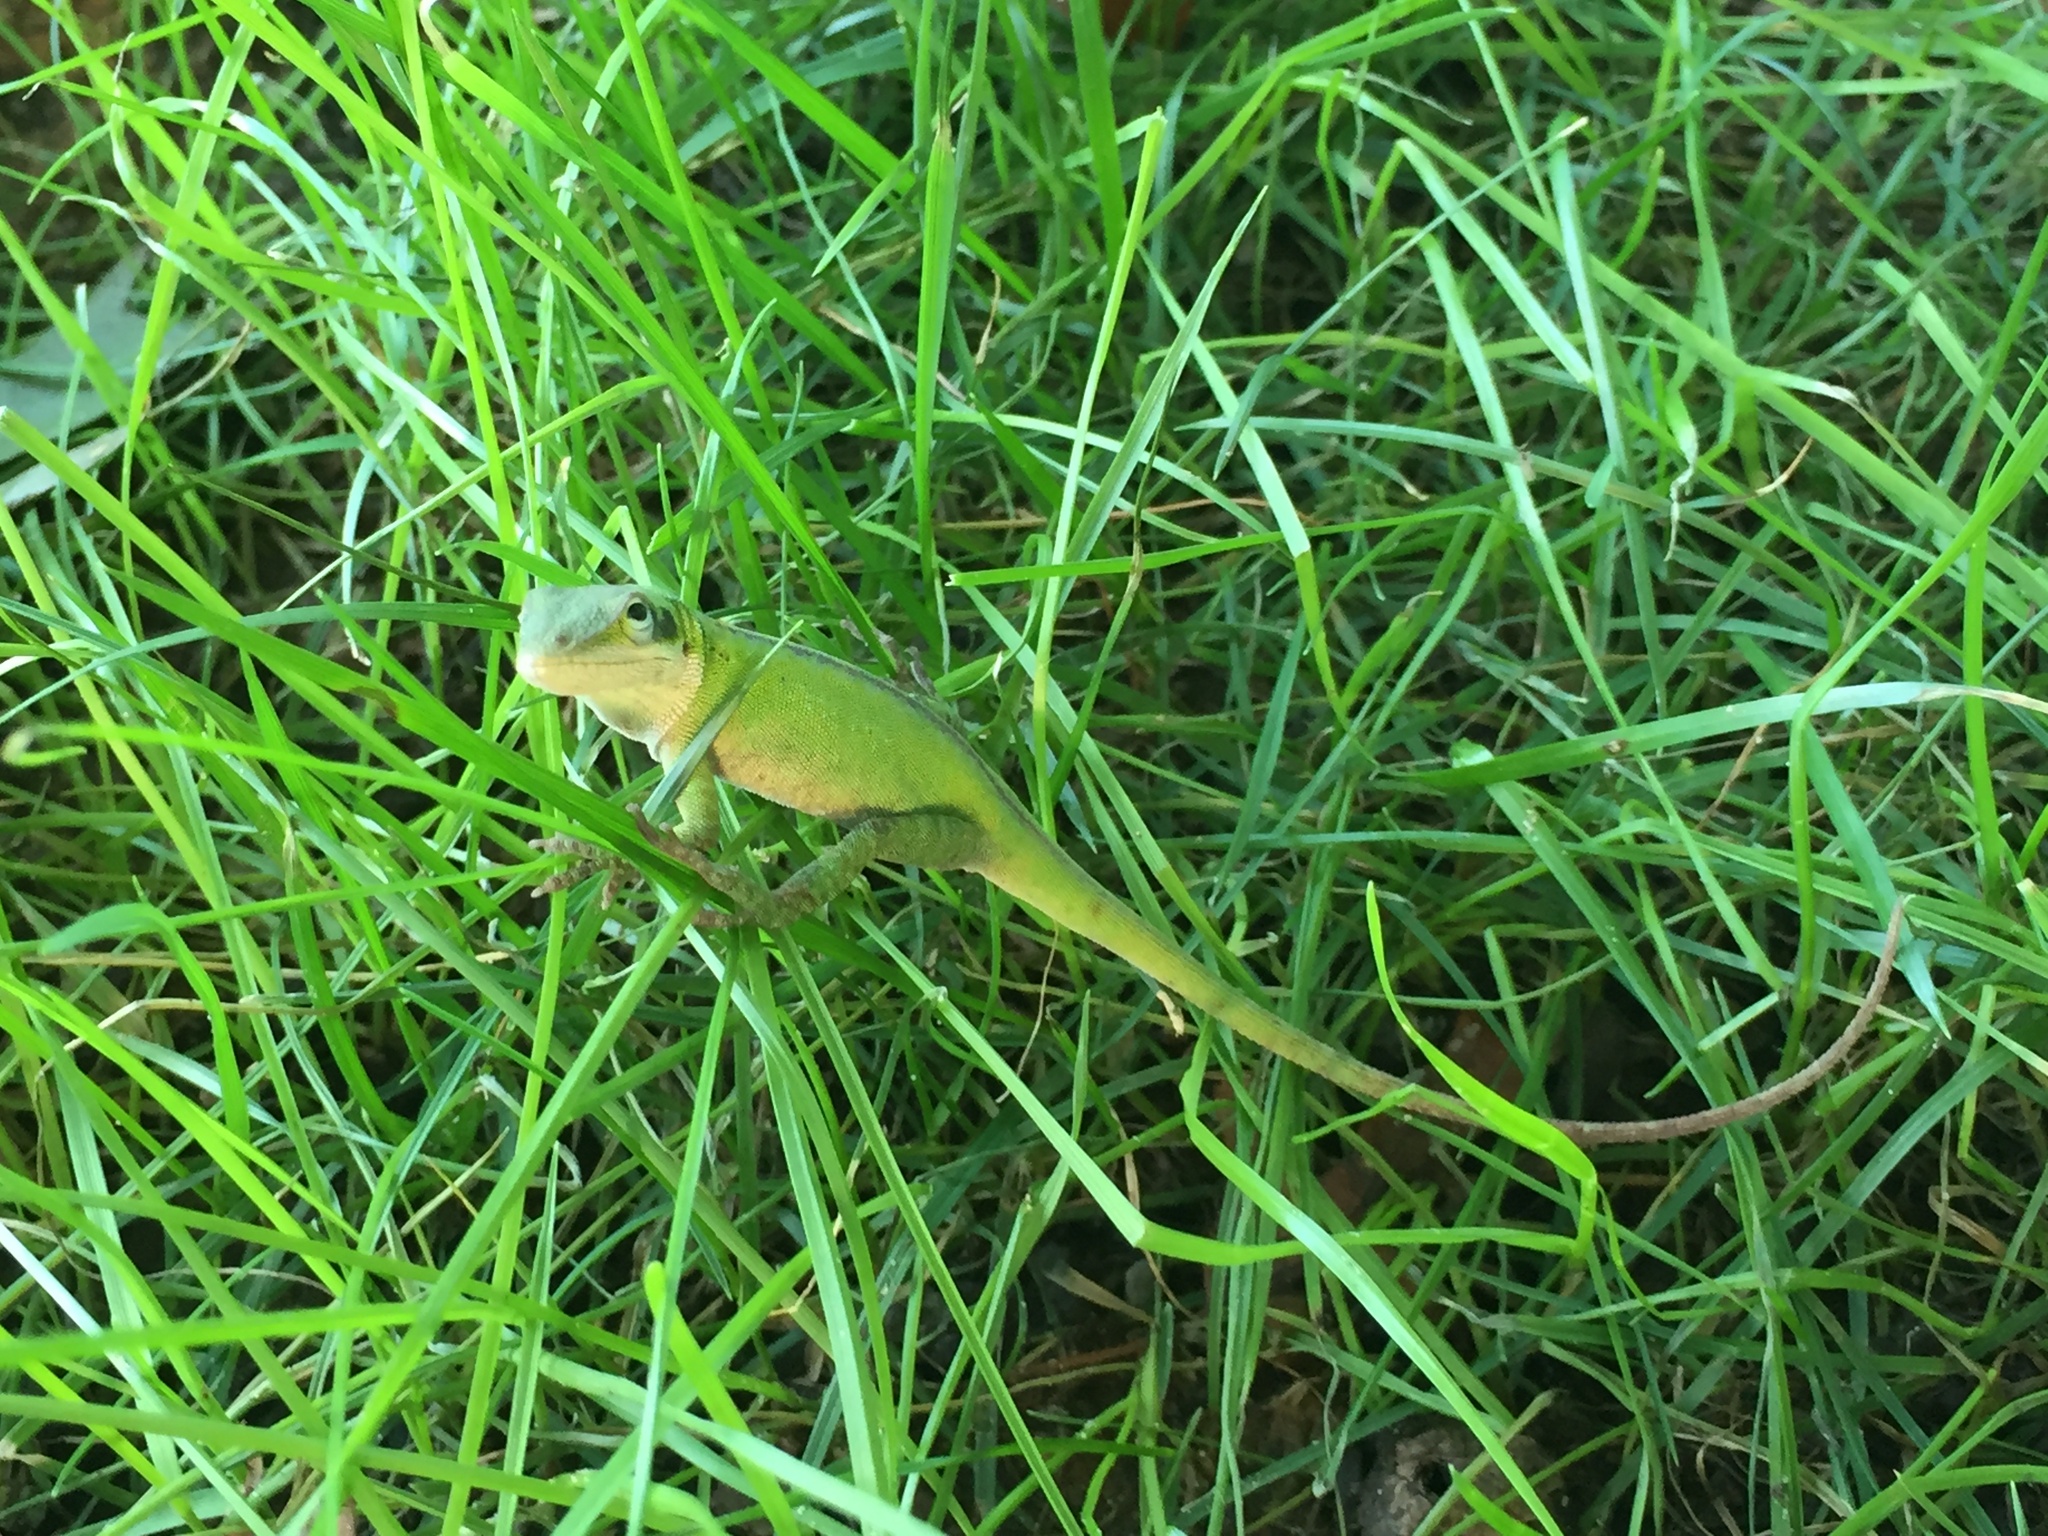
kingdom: Animalia
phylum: Chordata
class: Squamata
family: Dactyloidae
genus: Anolis
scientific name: Anolis carolinensis
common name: Green anole
